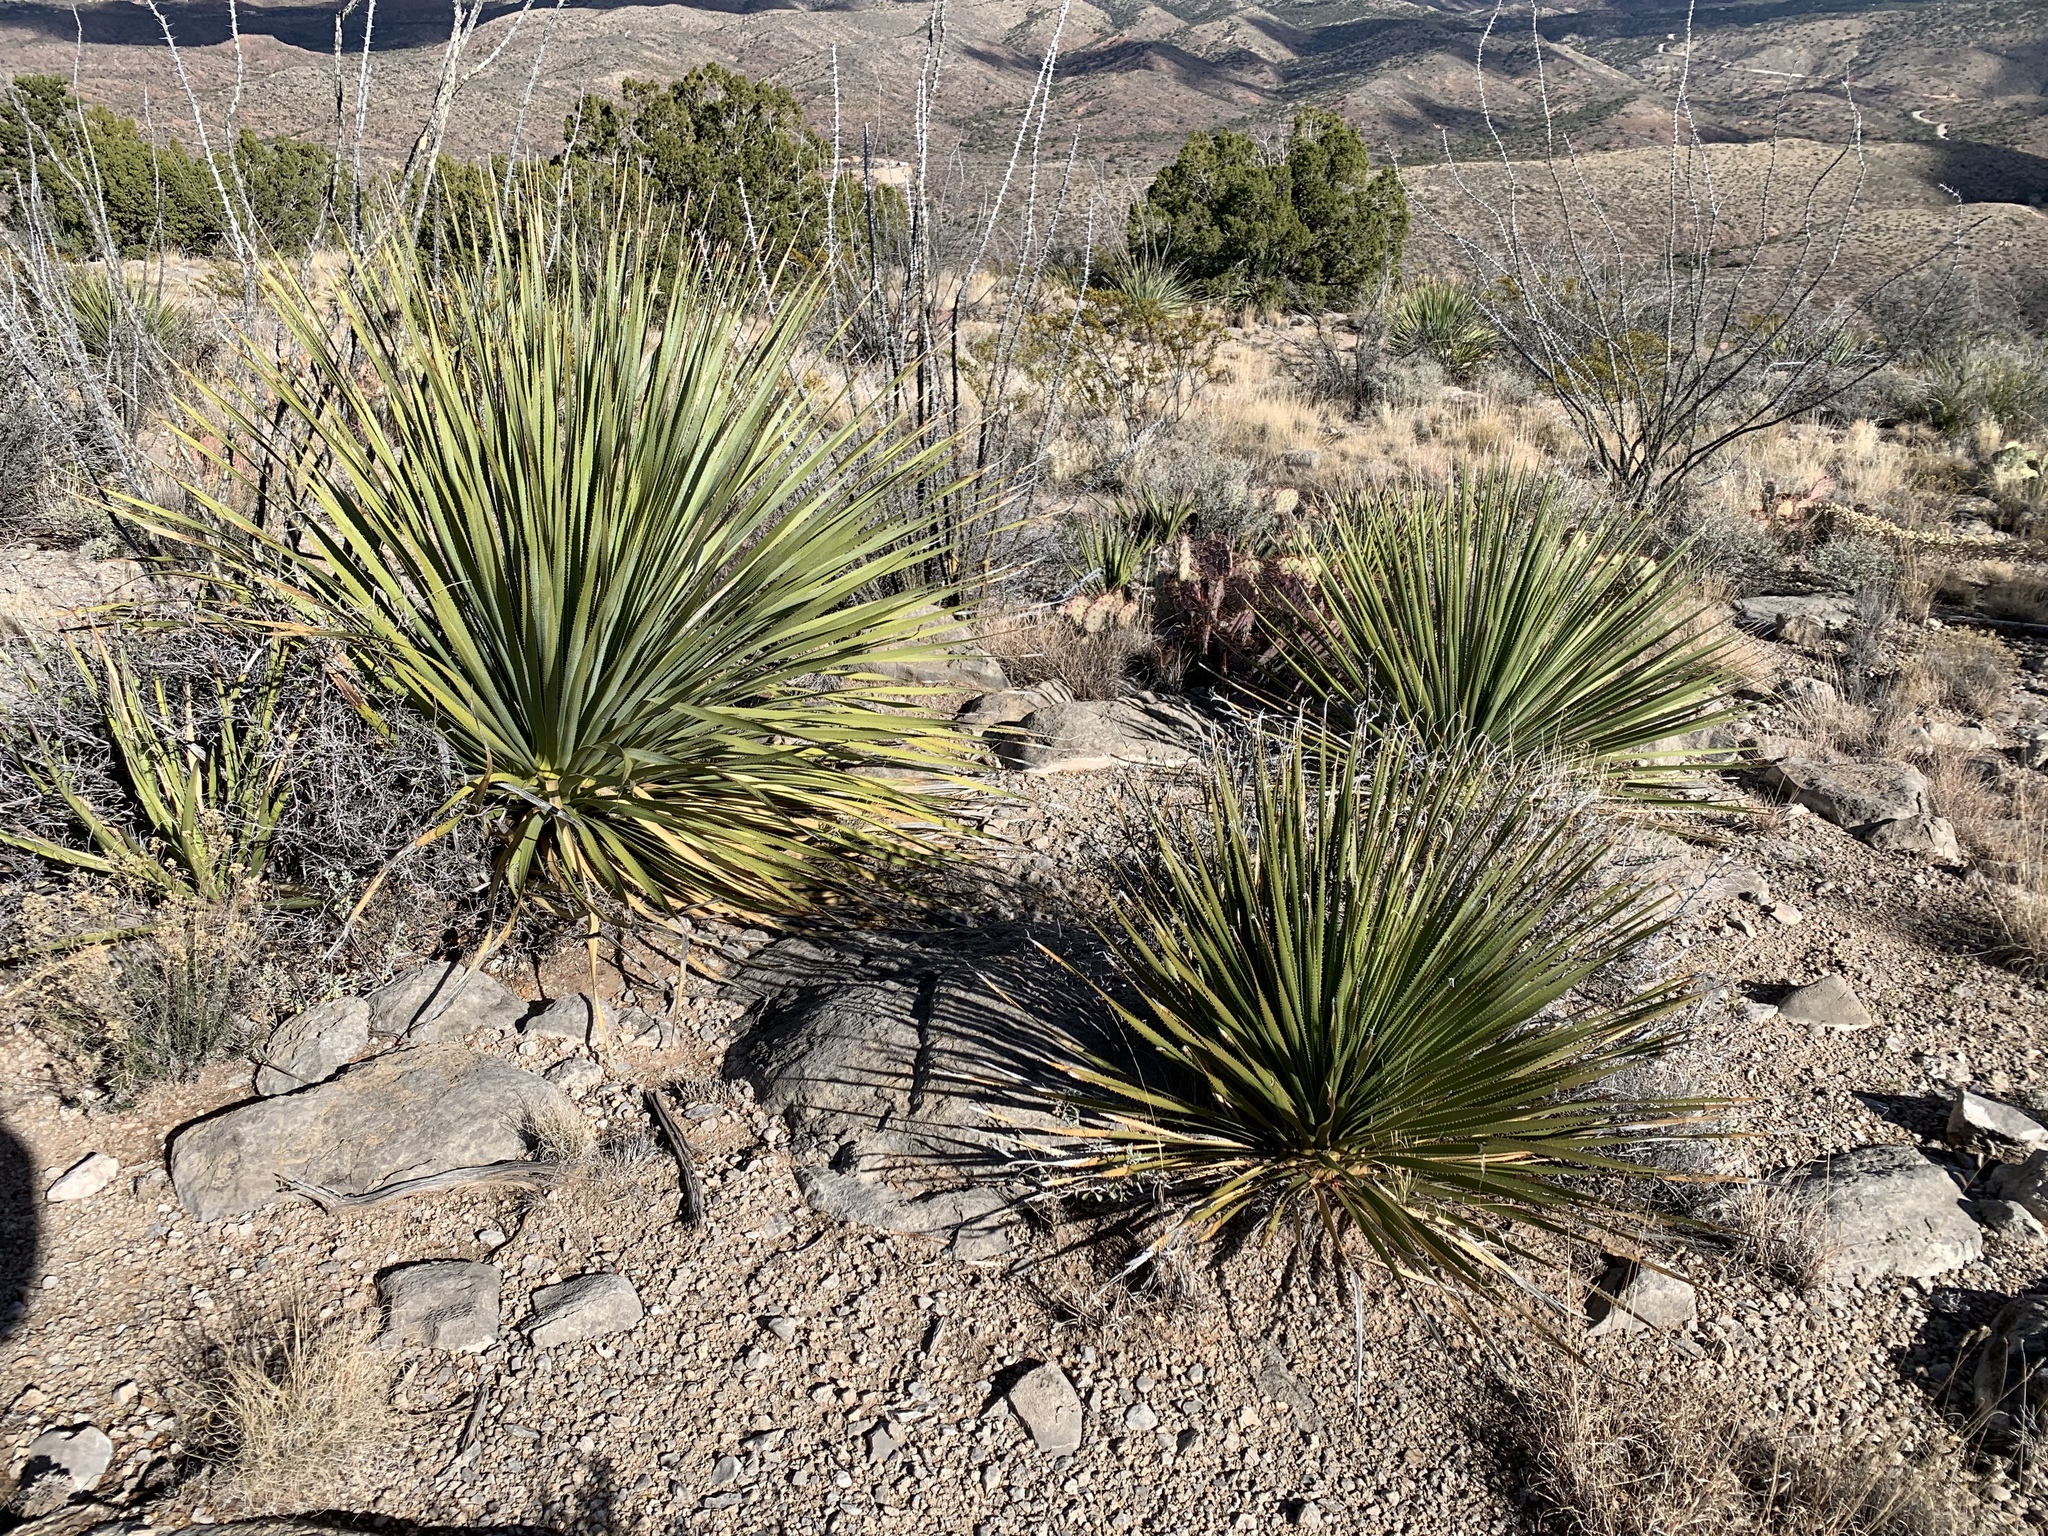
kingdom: Plantae
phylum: Tracheophyta
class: Liliopsida
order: Asparagales
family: Asparagaceae
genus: Dasylirion
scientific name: Dasylirion wheeleri
